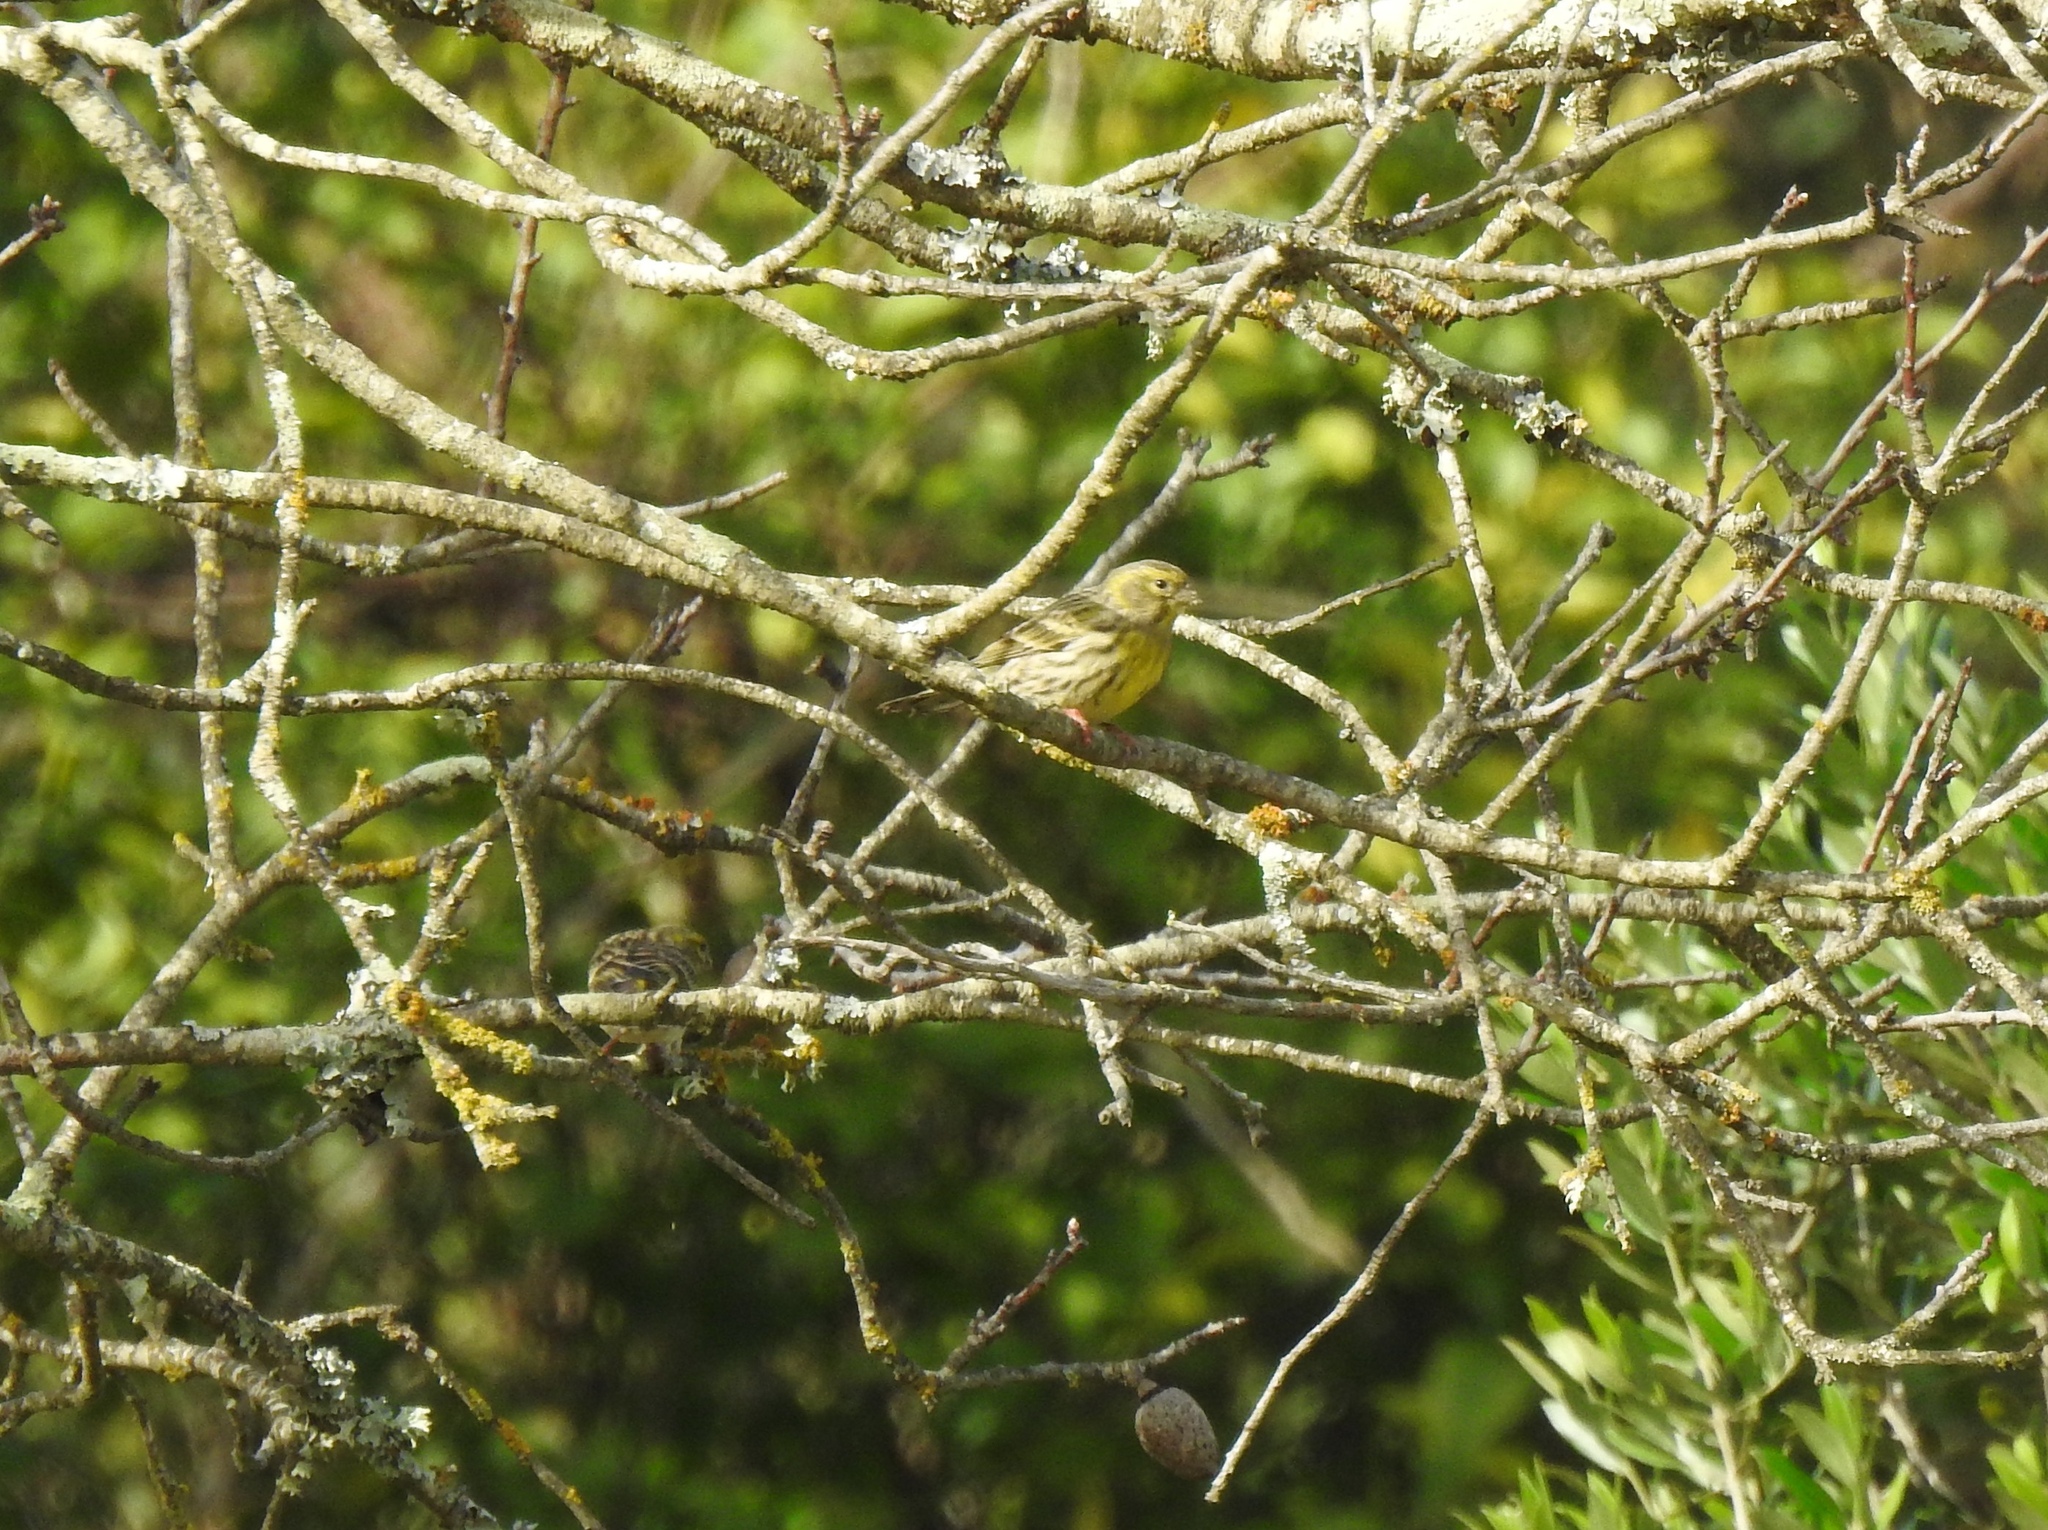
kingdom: Animalia
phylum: Chordata
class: Aves
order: Passeriformes
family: Fringillidae
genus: Serinus
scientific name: Serinus serinus
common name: European serin
